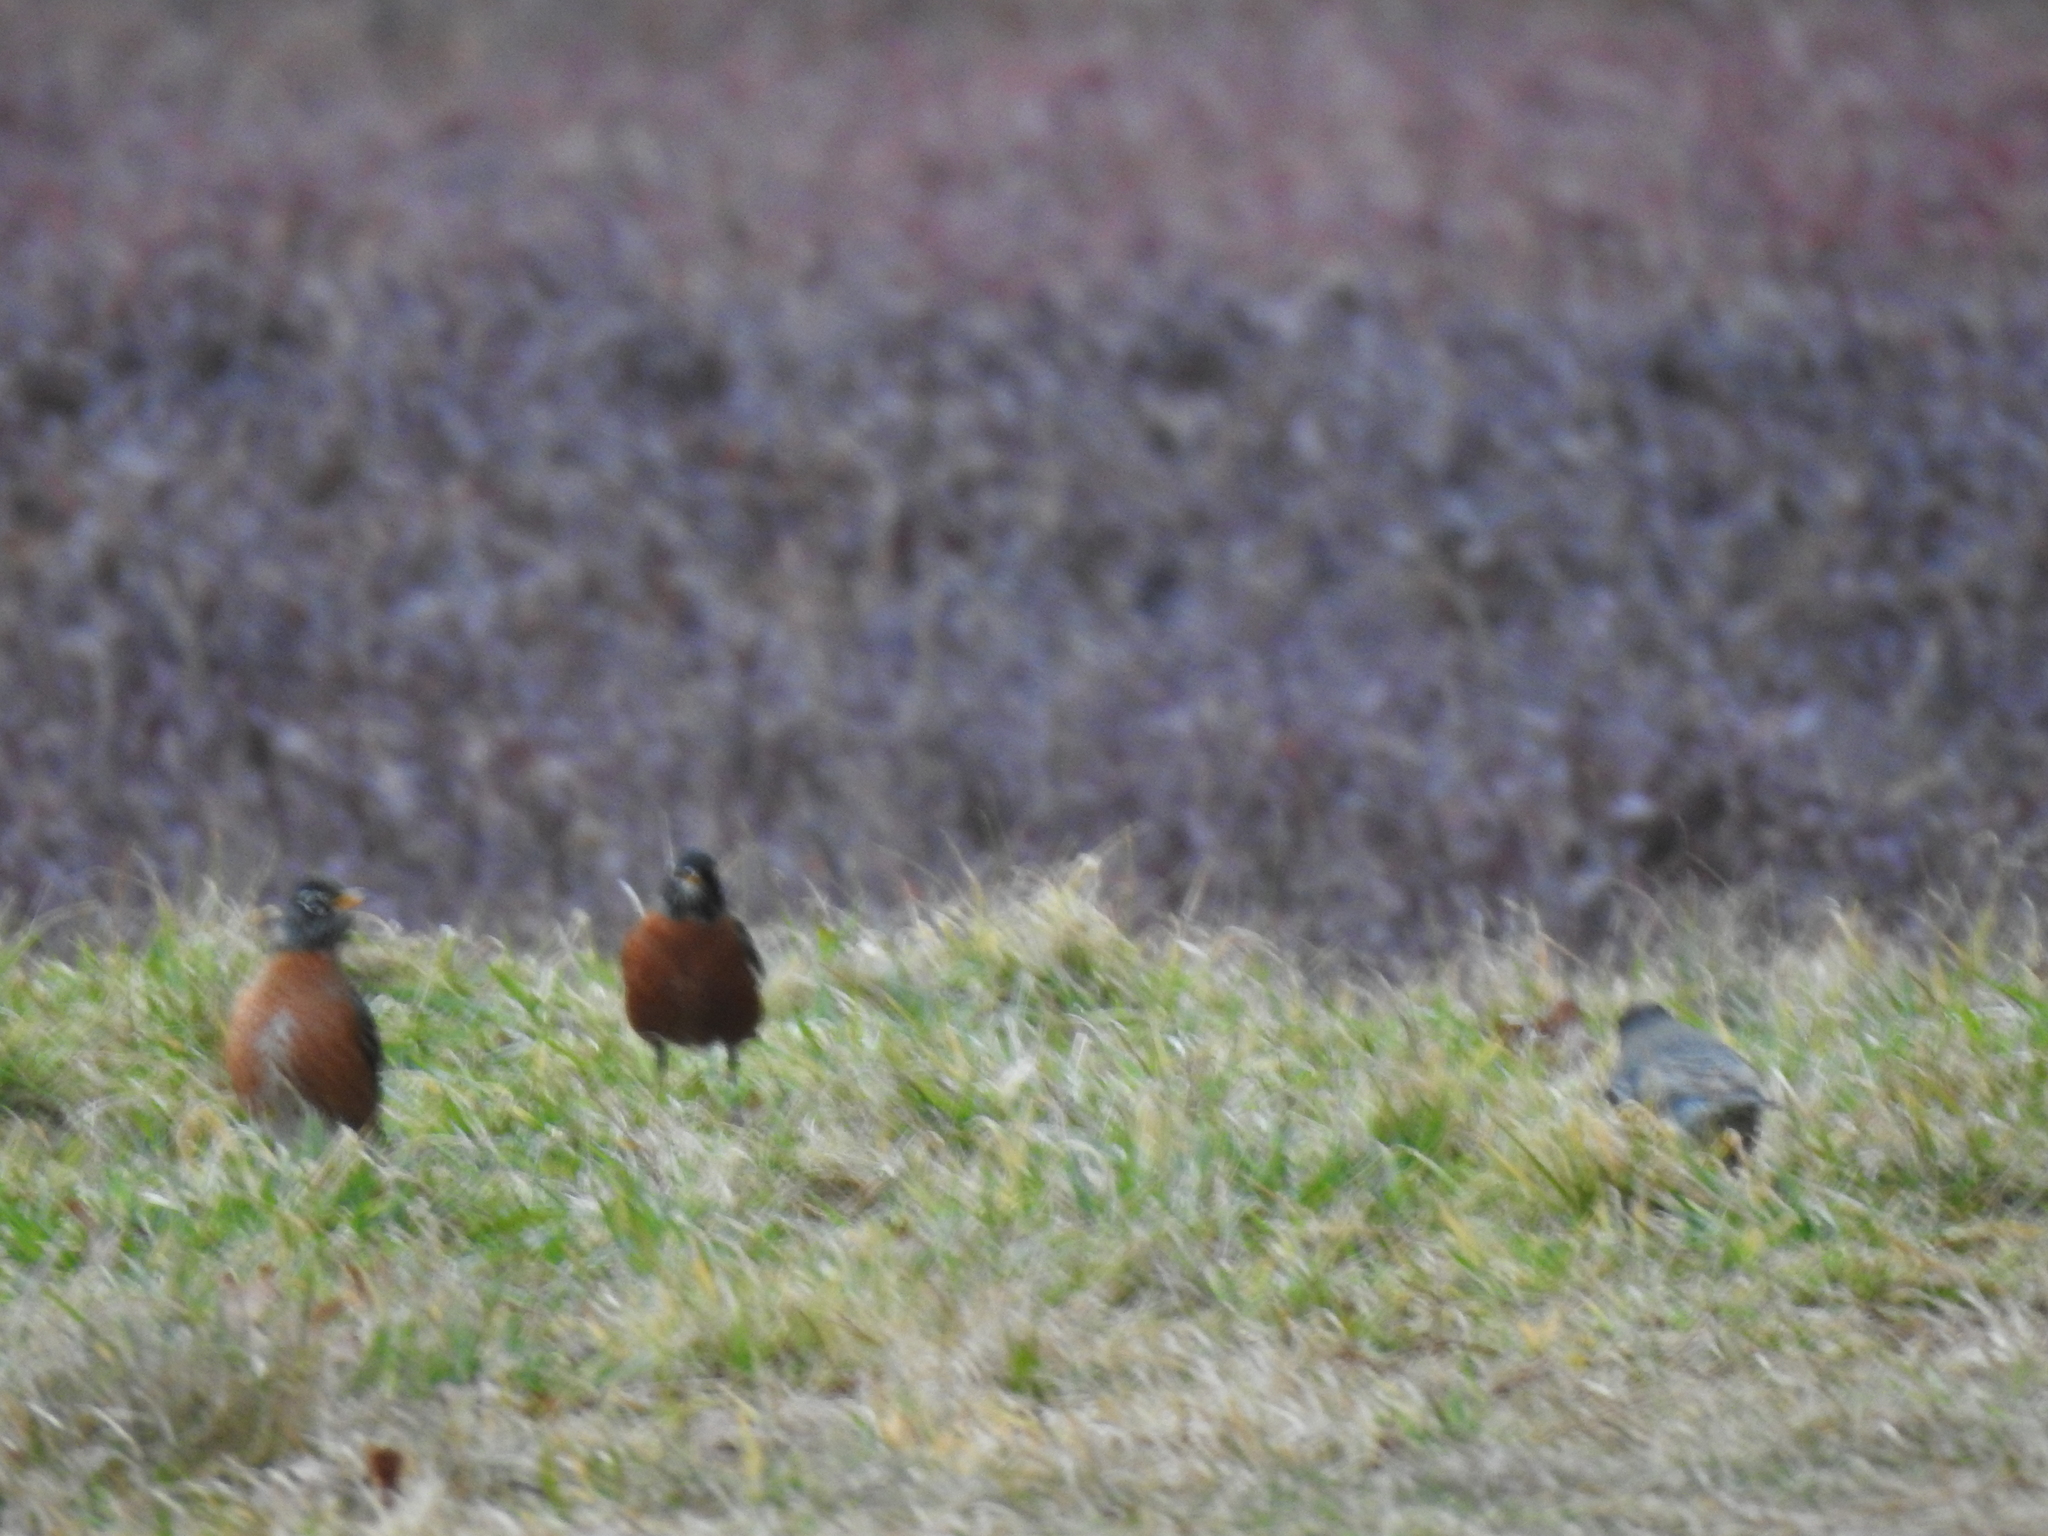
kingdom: Animalia
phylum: Chordata
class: Aves
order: Passeriformes
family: Turdidae
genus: Turdus
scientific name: Turdus migratorius
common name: American robin
